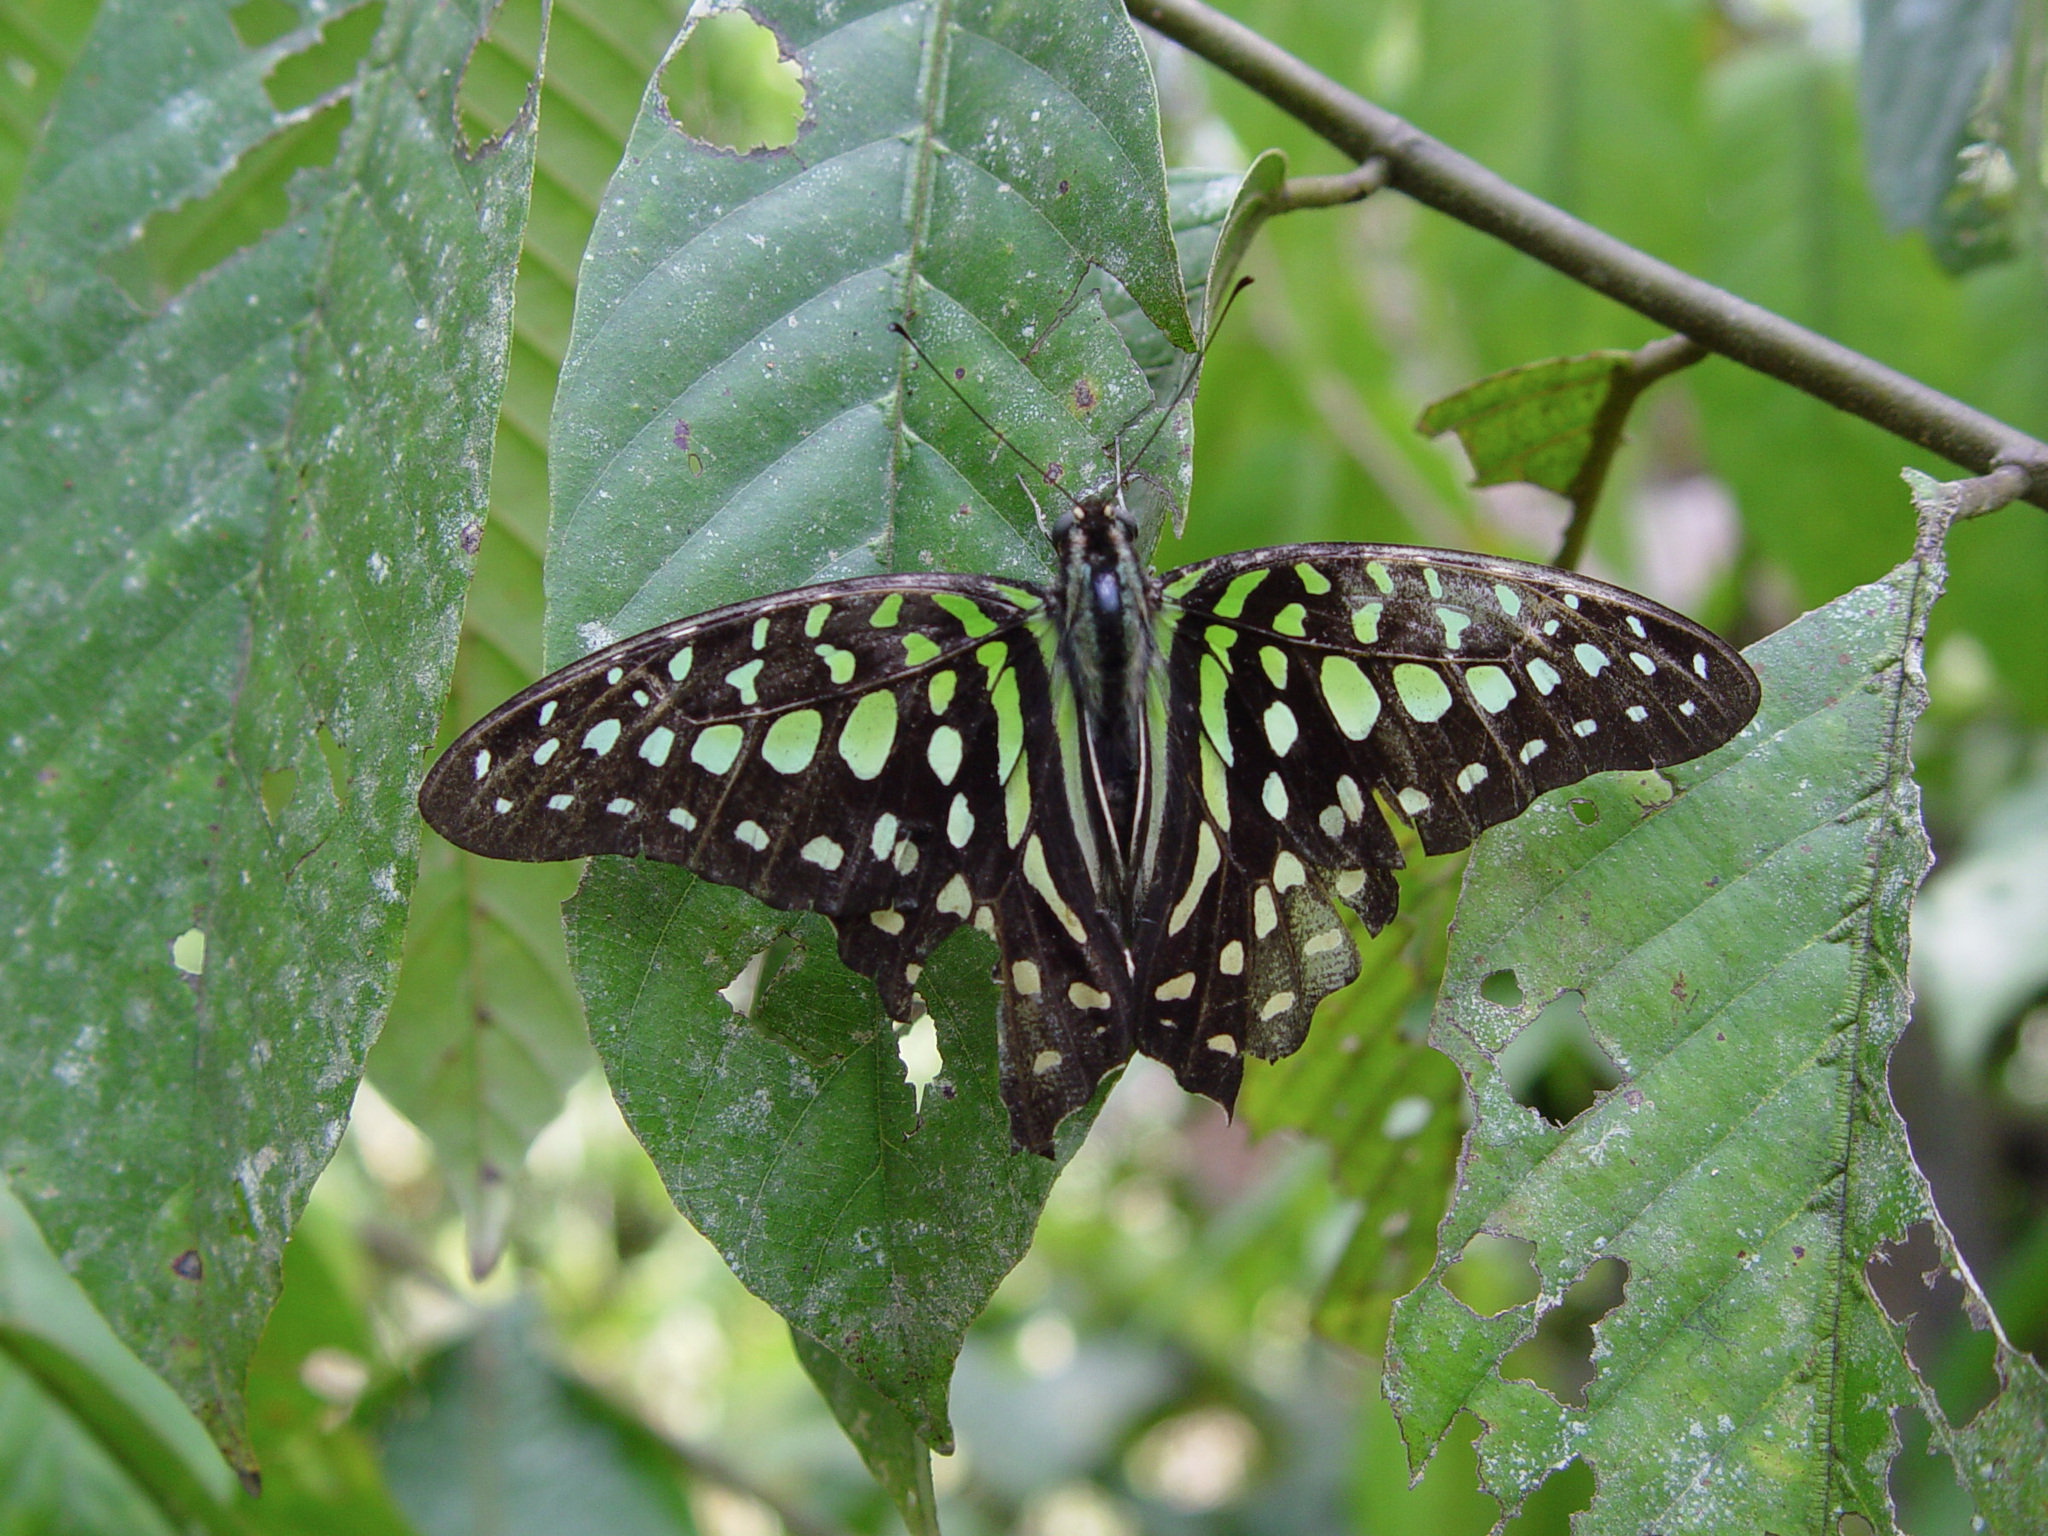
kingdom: Animalia
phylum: Arthropoda
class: Insecta
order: Lepidoptera
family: Papilionidae
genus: Graphium
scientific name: Graphium agamemnon
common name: Tailed jay
